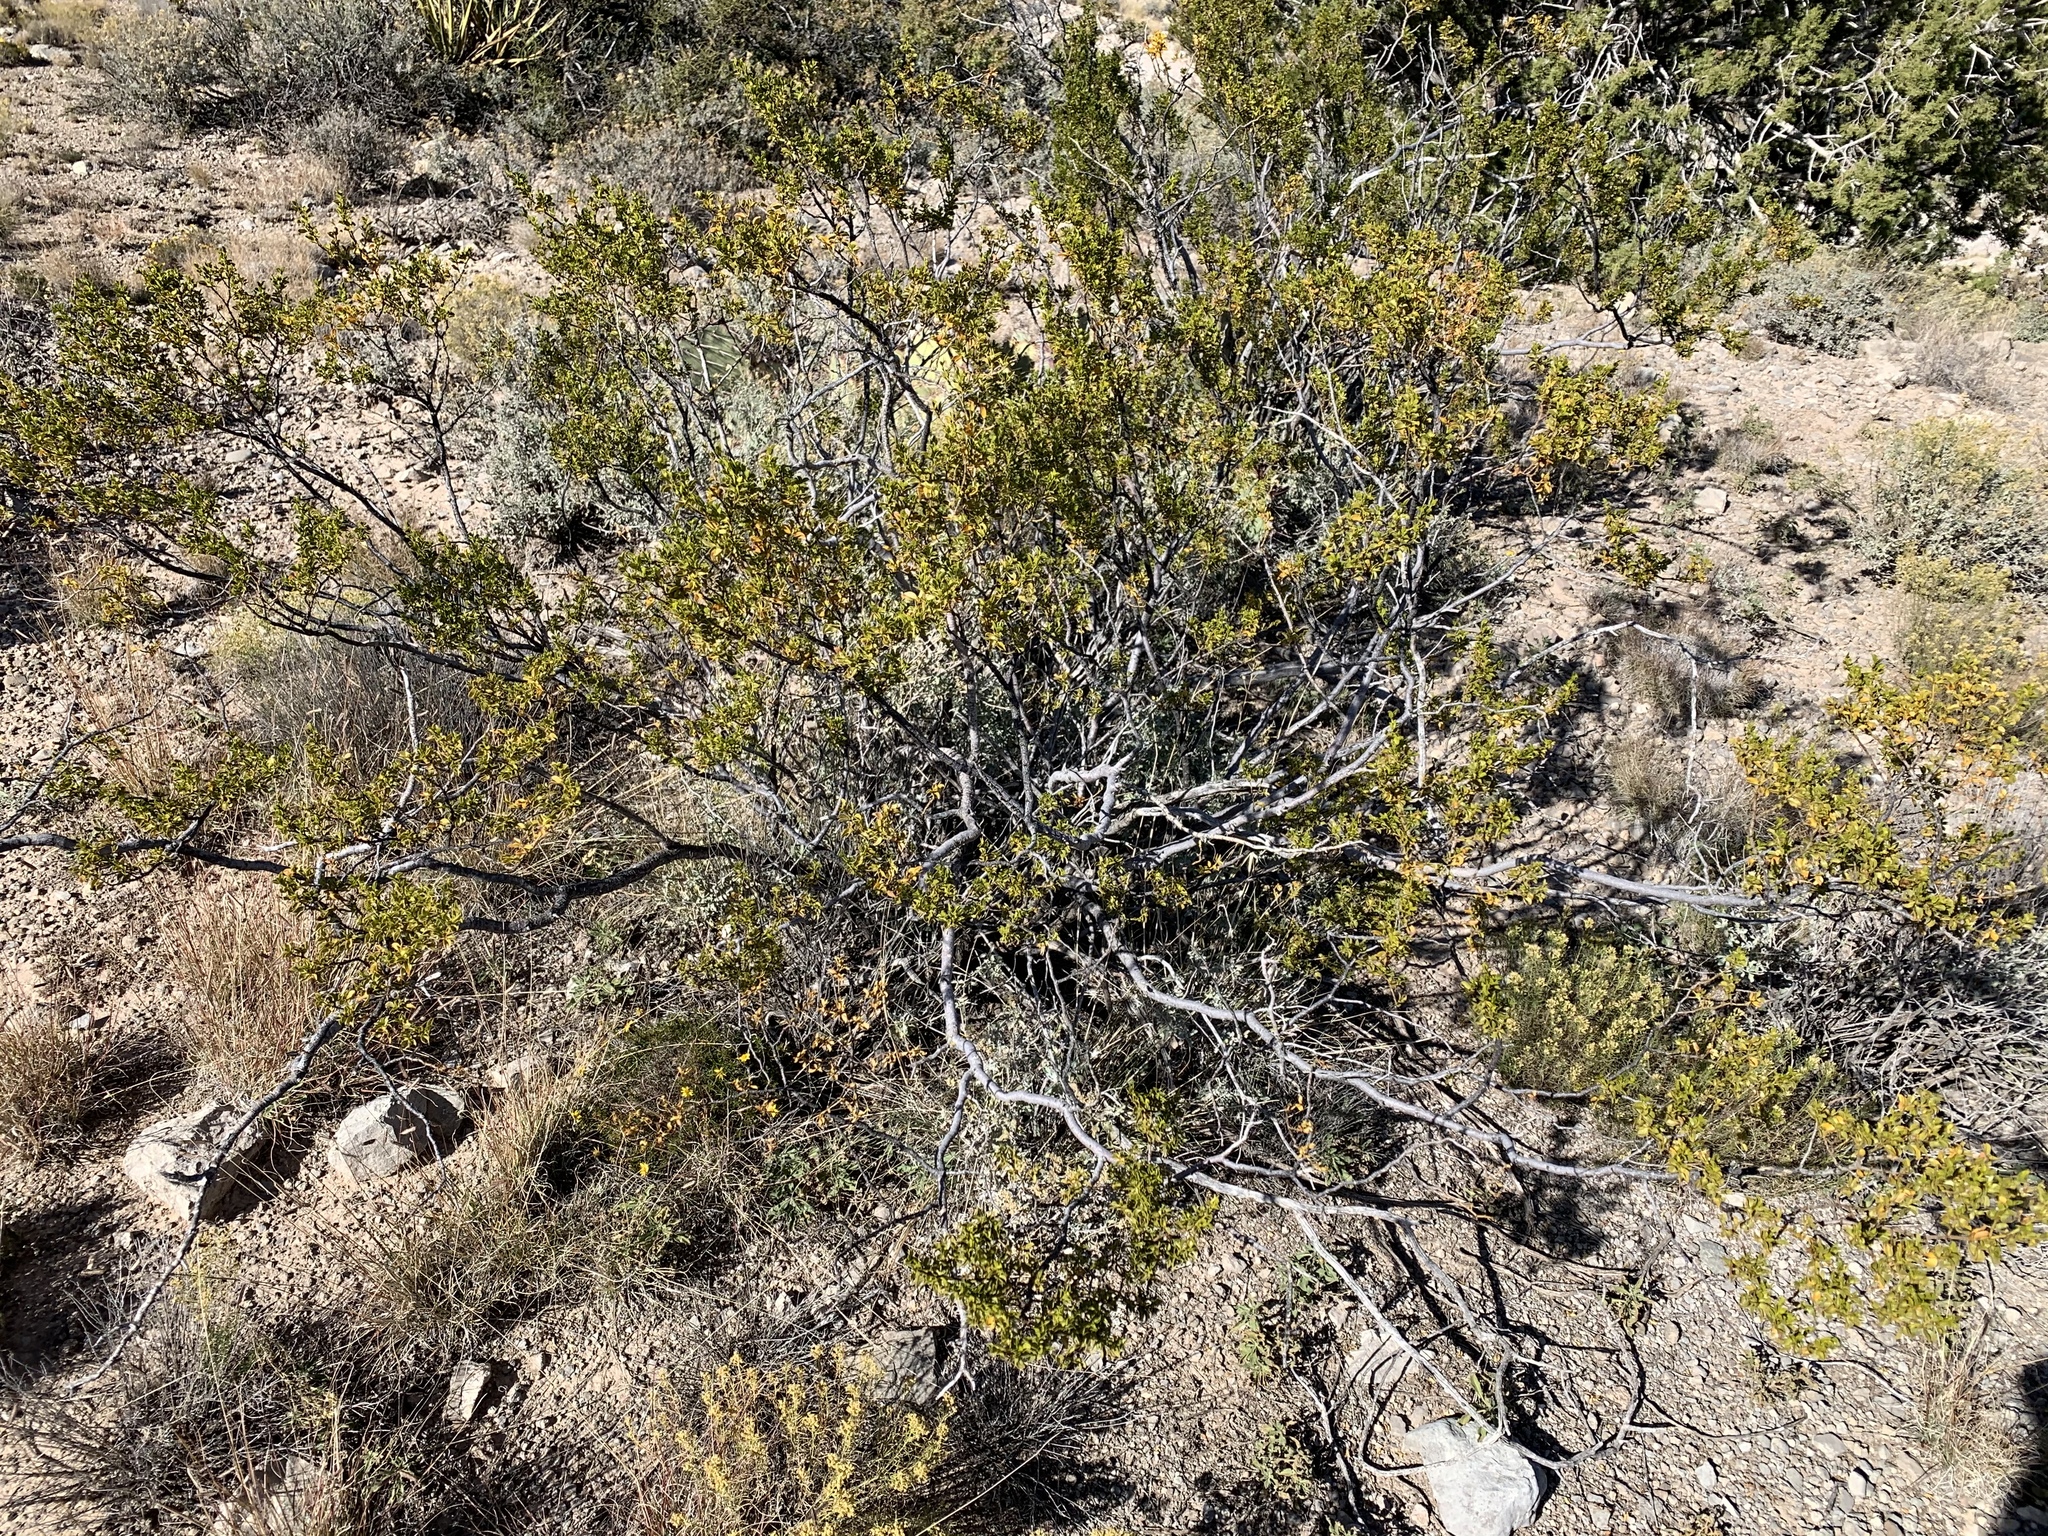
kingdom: Plantae
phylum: Tracheophyta
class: Magnoliopsida
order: Zygophyllales
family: Zygophyllaceae
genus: Larrea
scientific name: Larrea tridentata
